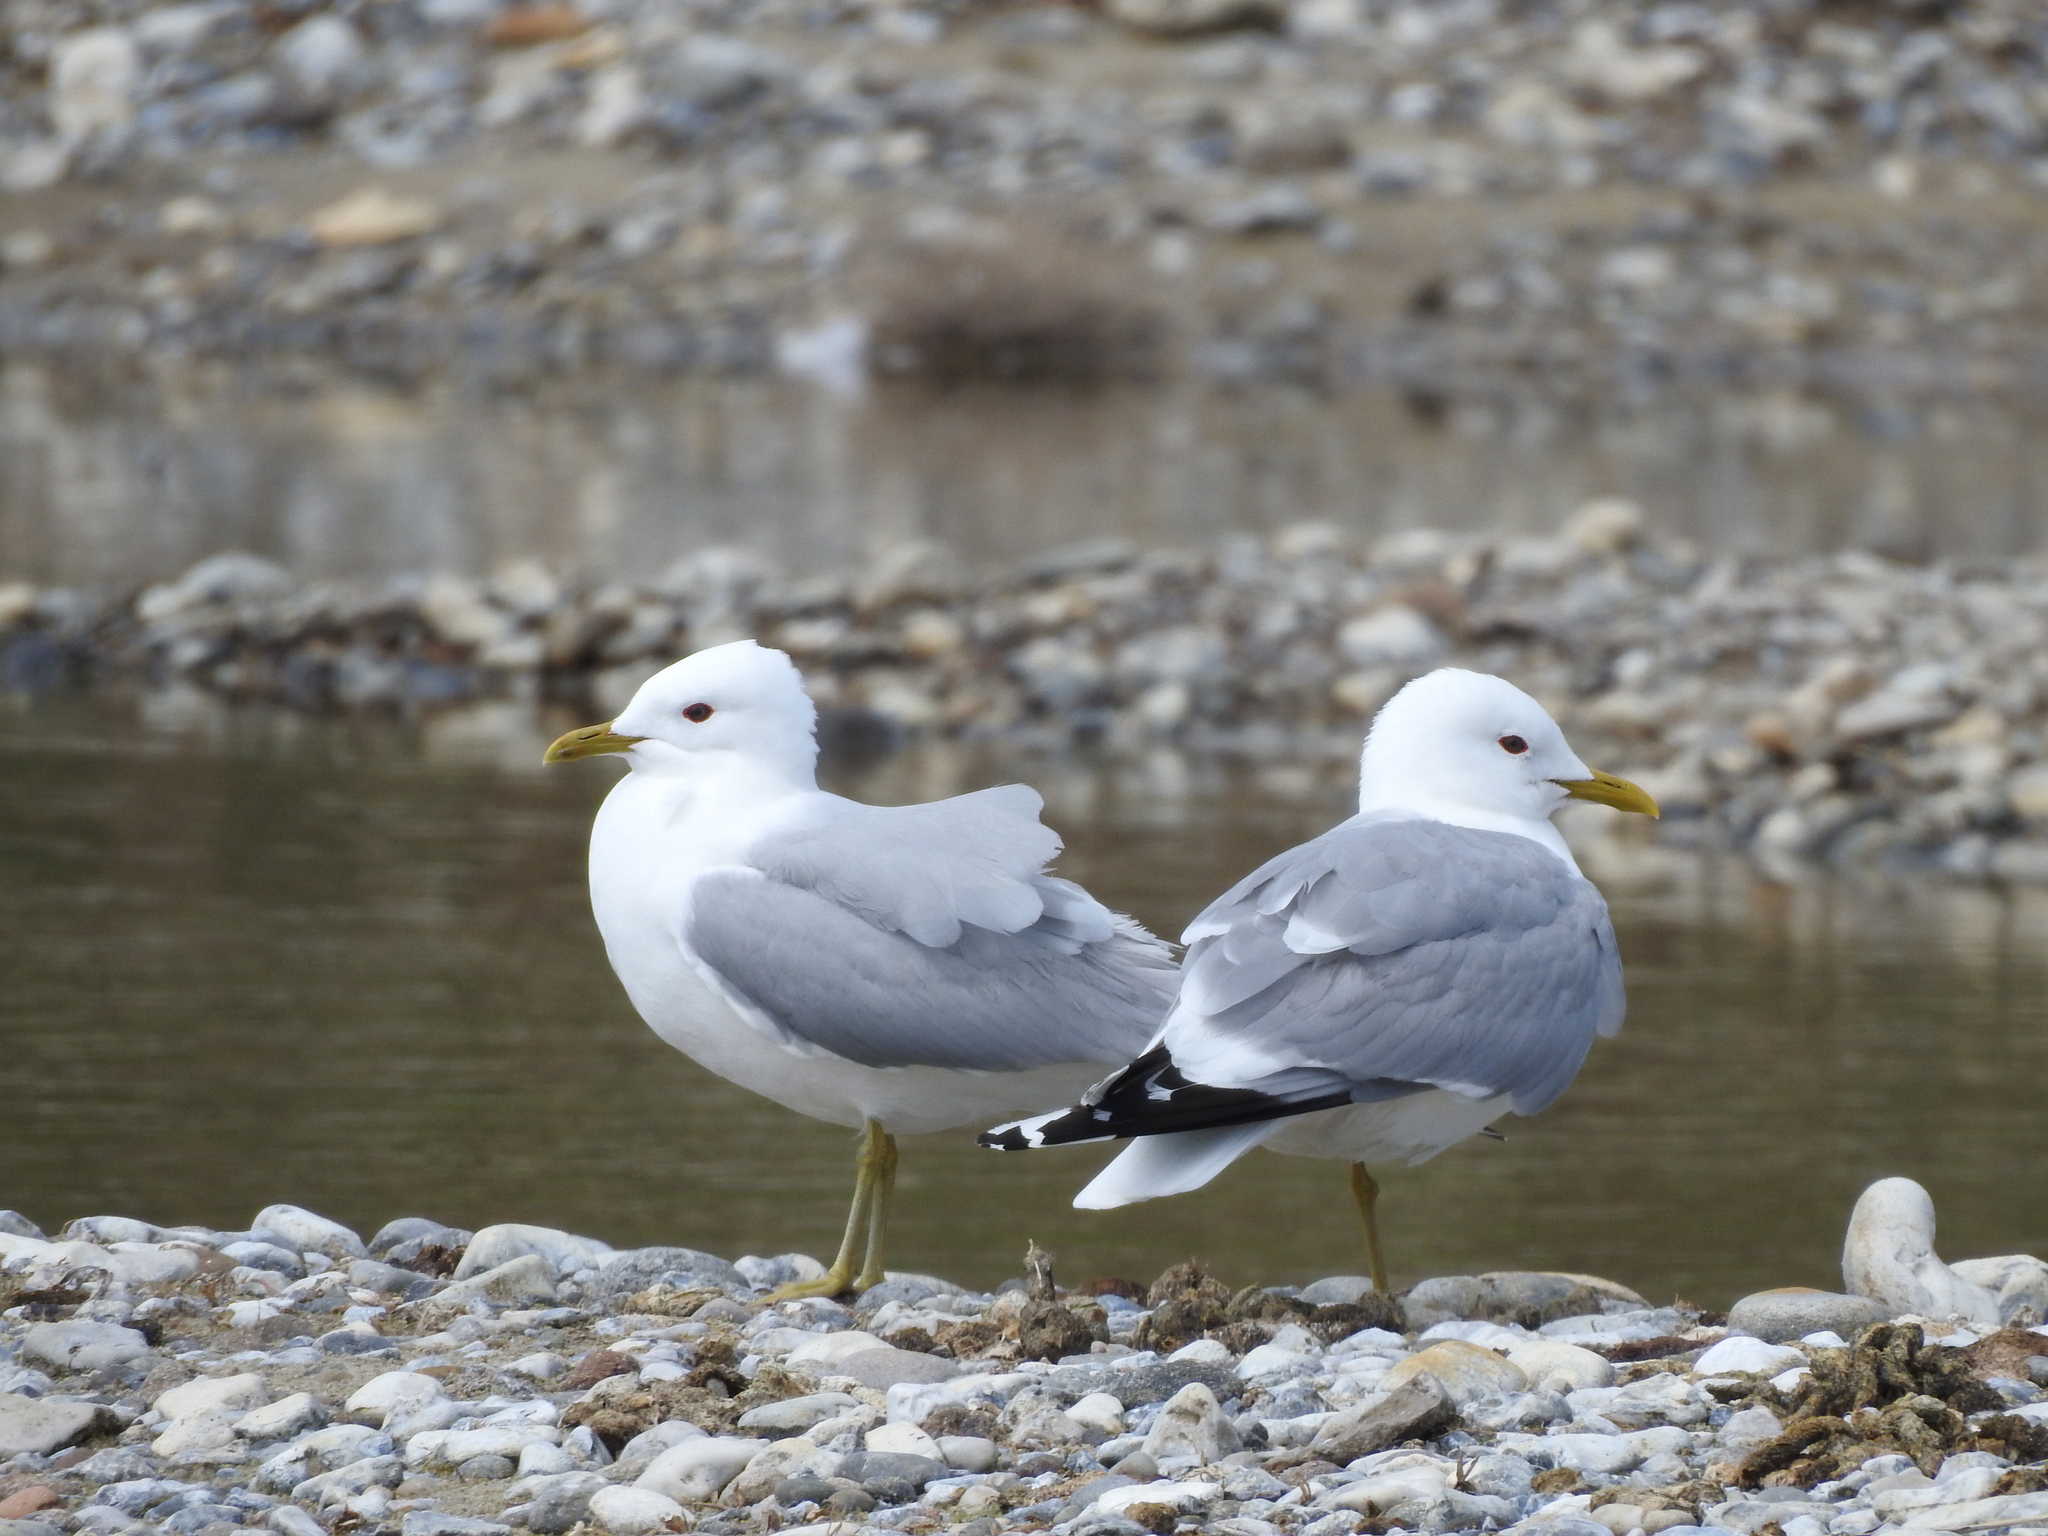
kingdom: Animalia
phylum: Chordata
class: Aves
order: Charadriiformes
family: Laridae
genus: Larus
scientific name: Larus canus
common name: Mew gull
